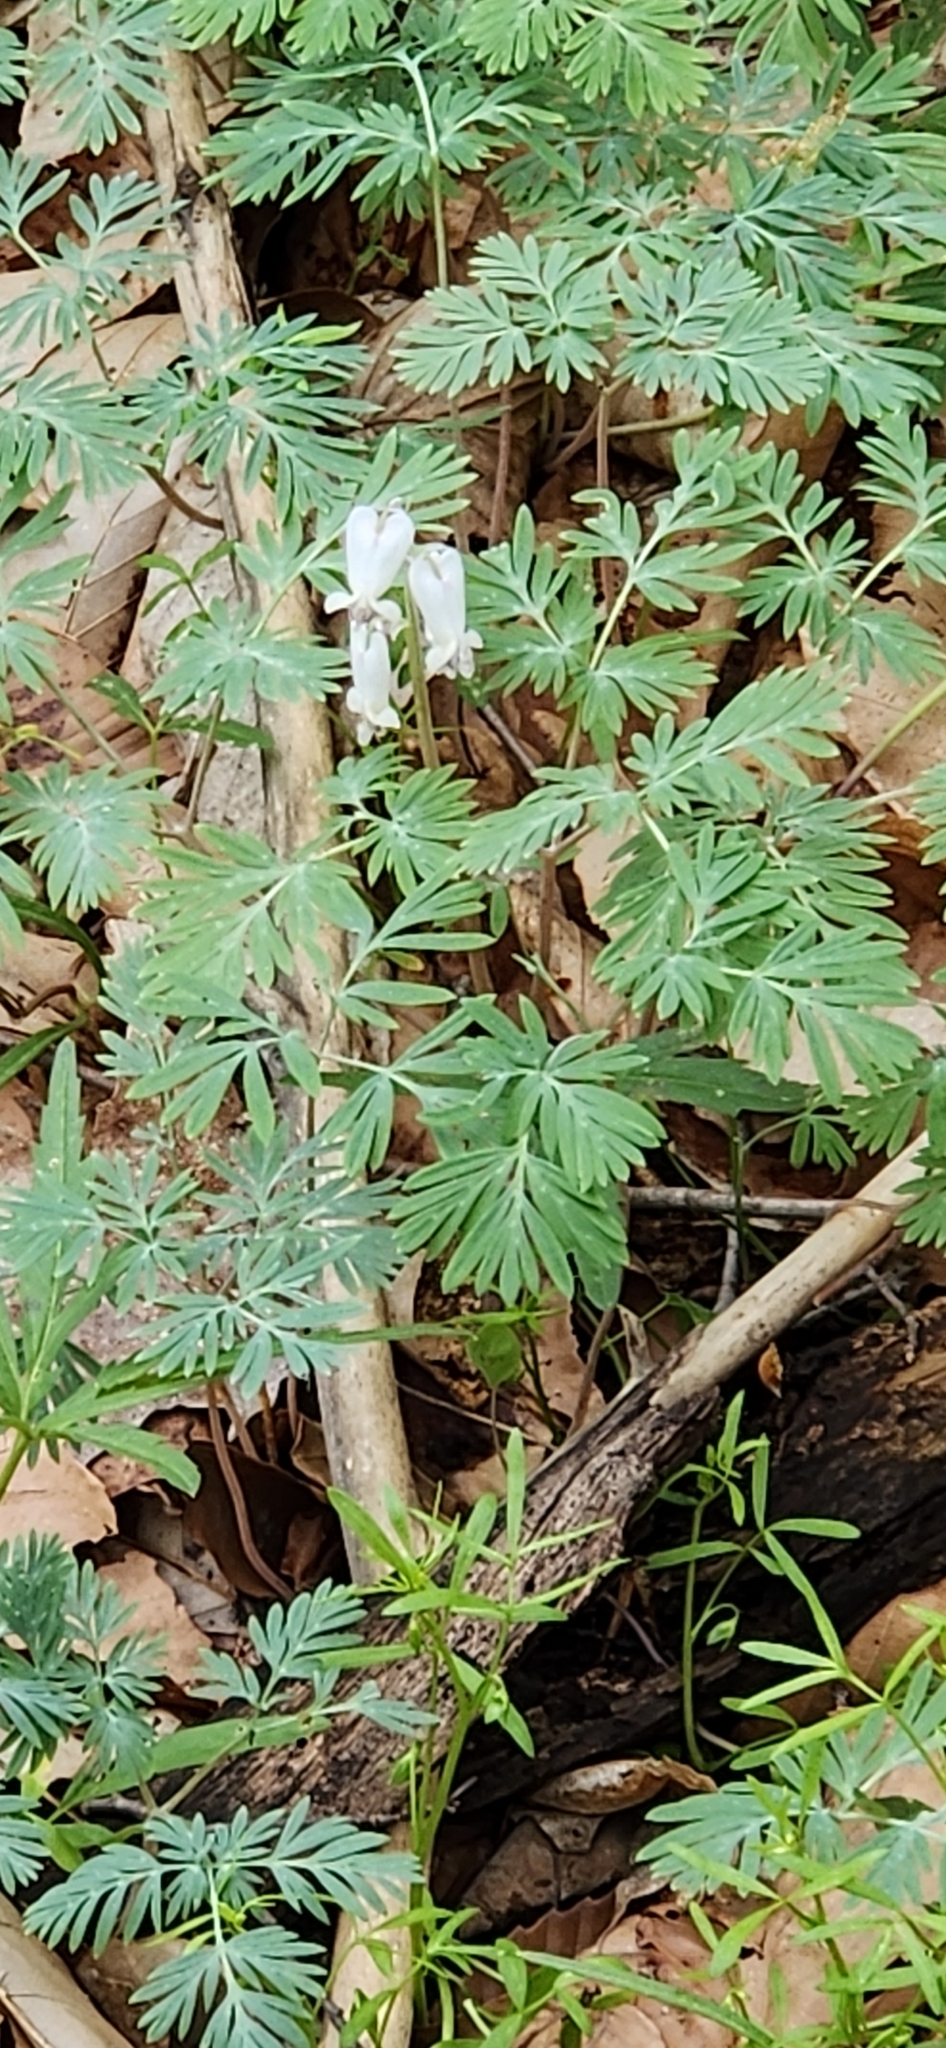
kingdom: Plantae
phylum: Tracheophyta
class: Magnoliopsida
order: Ranunculales
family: Papaveraceae
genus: Dicentra
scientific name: Dicentra canadensis
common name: Squirrel-corn
